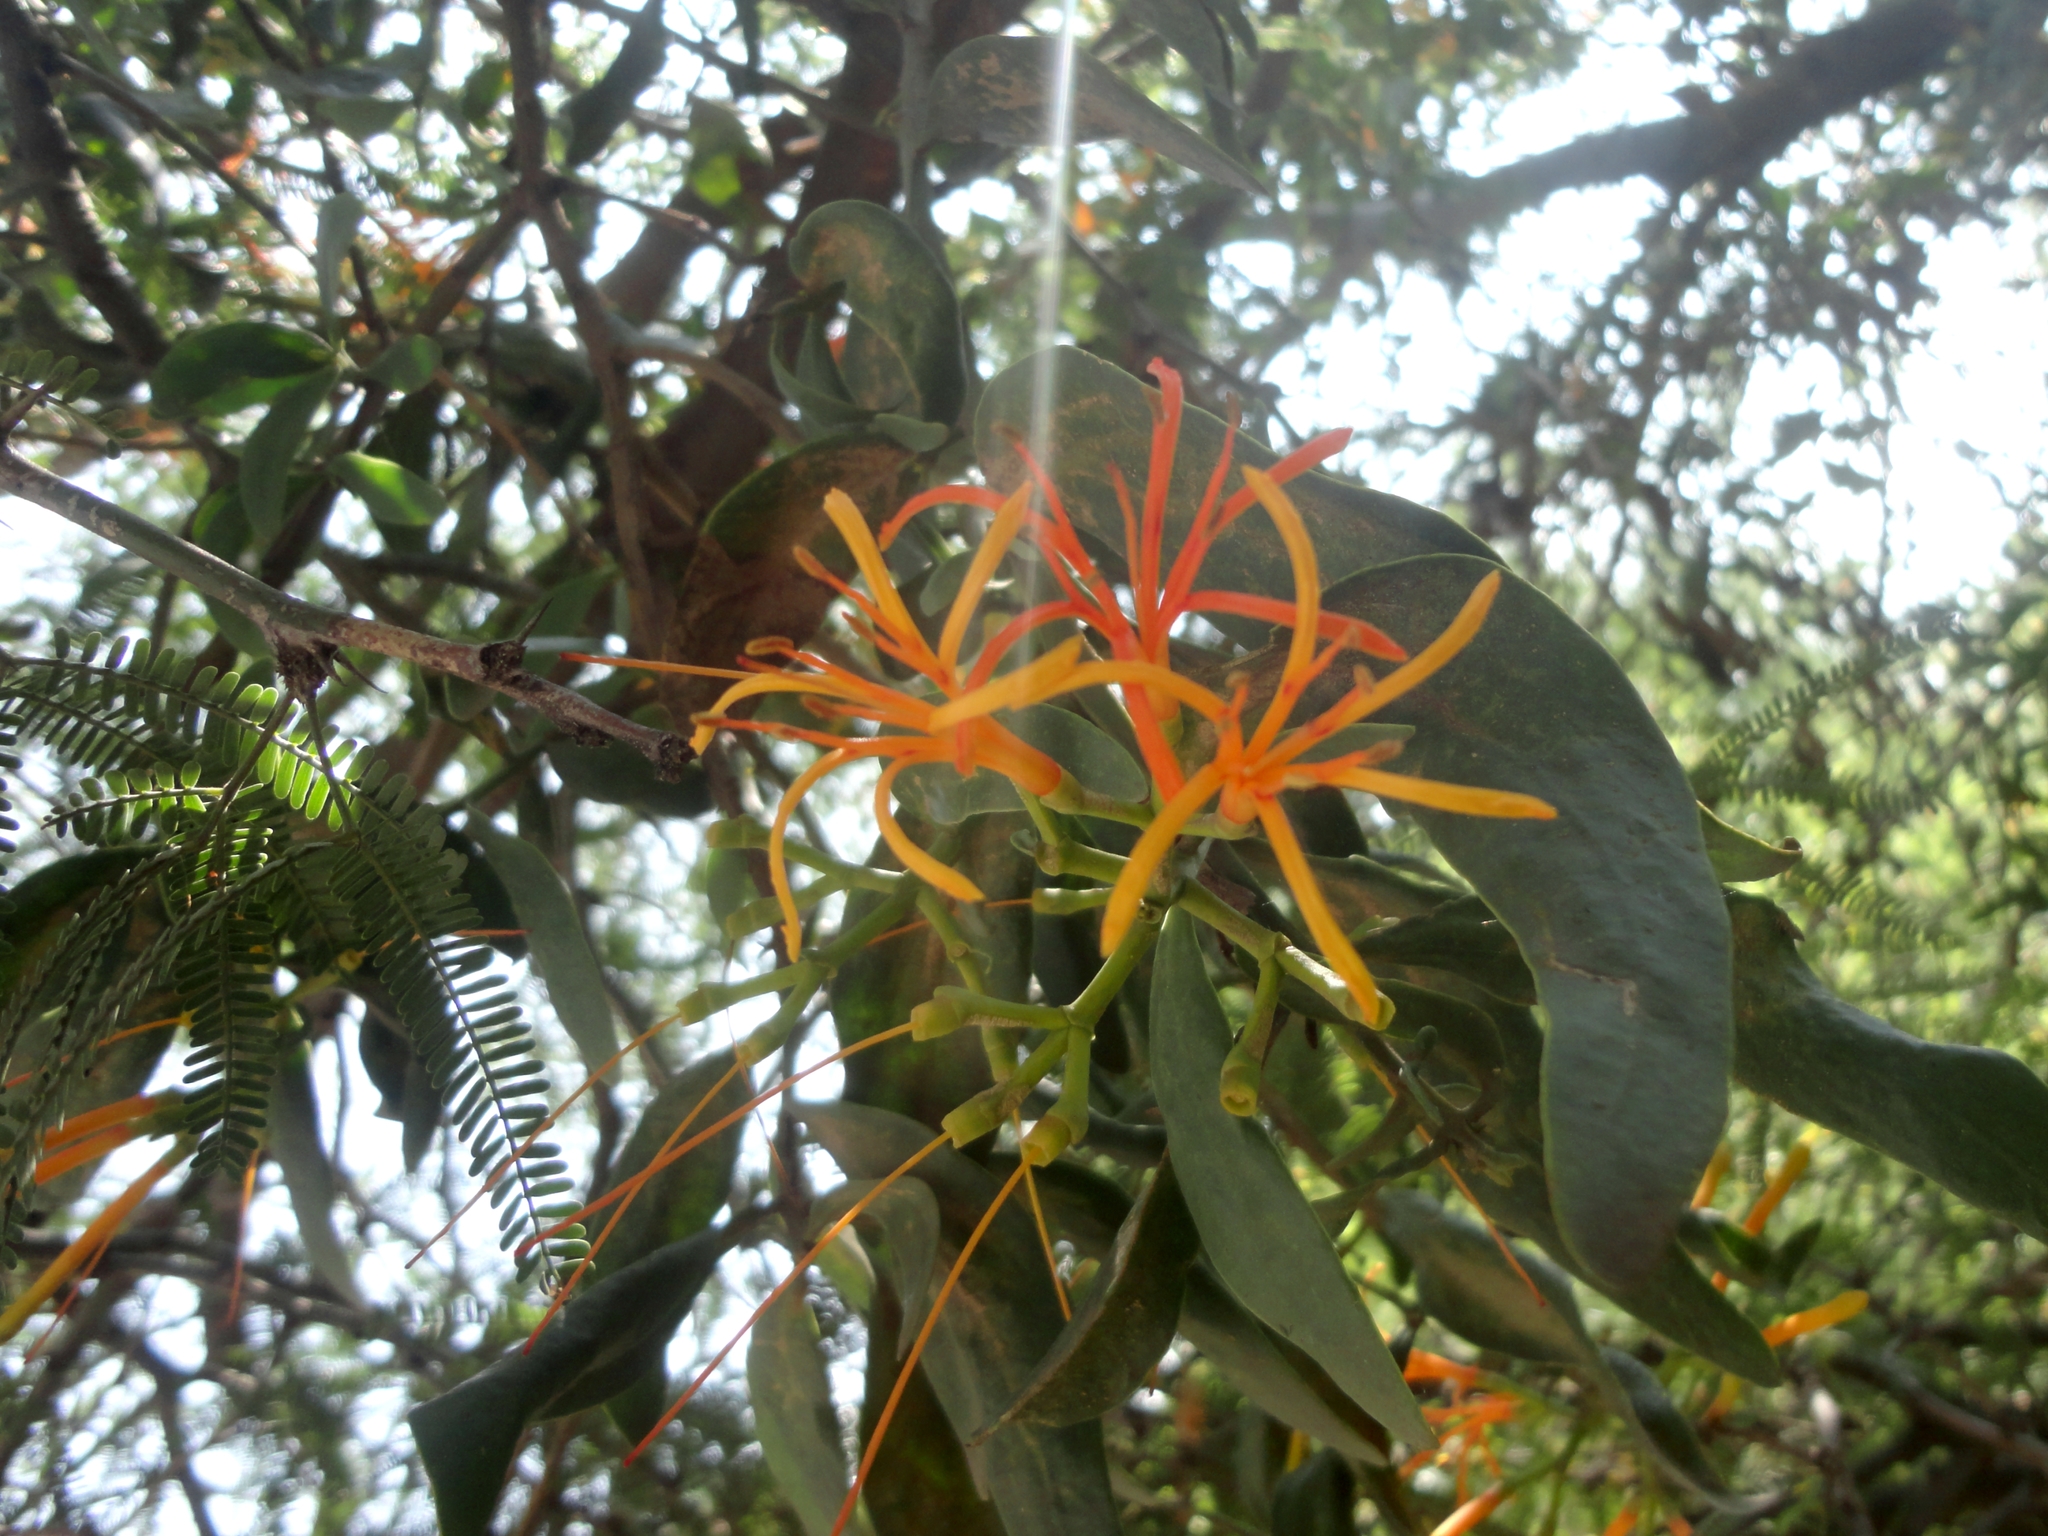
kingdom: Plantae
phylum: Tracheophyta
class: Magnoliopsida
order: Santalales
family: Loranthaceae
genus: Psittacanthus
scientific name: Psittacanthus calyculatus
